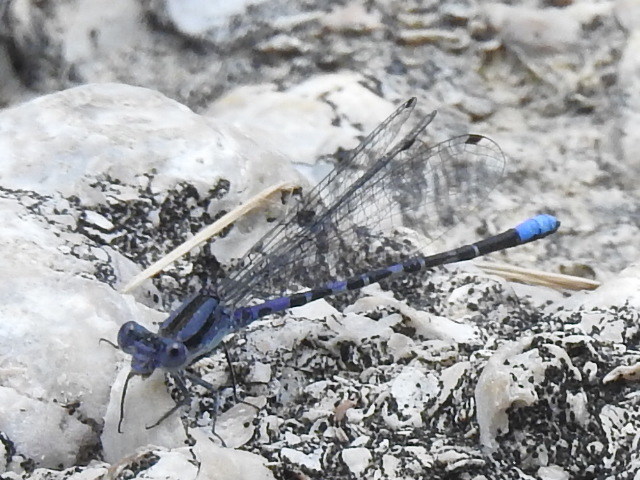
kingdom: Animalia
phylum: Arthropoda
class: Insecta
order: Odonata
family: Coenagrionidae
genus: Argia
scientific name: Argia immunda
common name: Kiowa dancer
